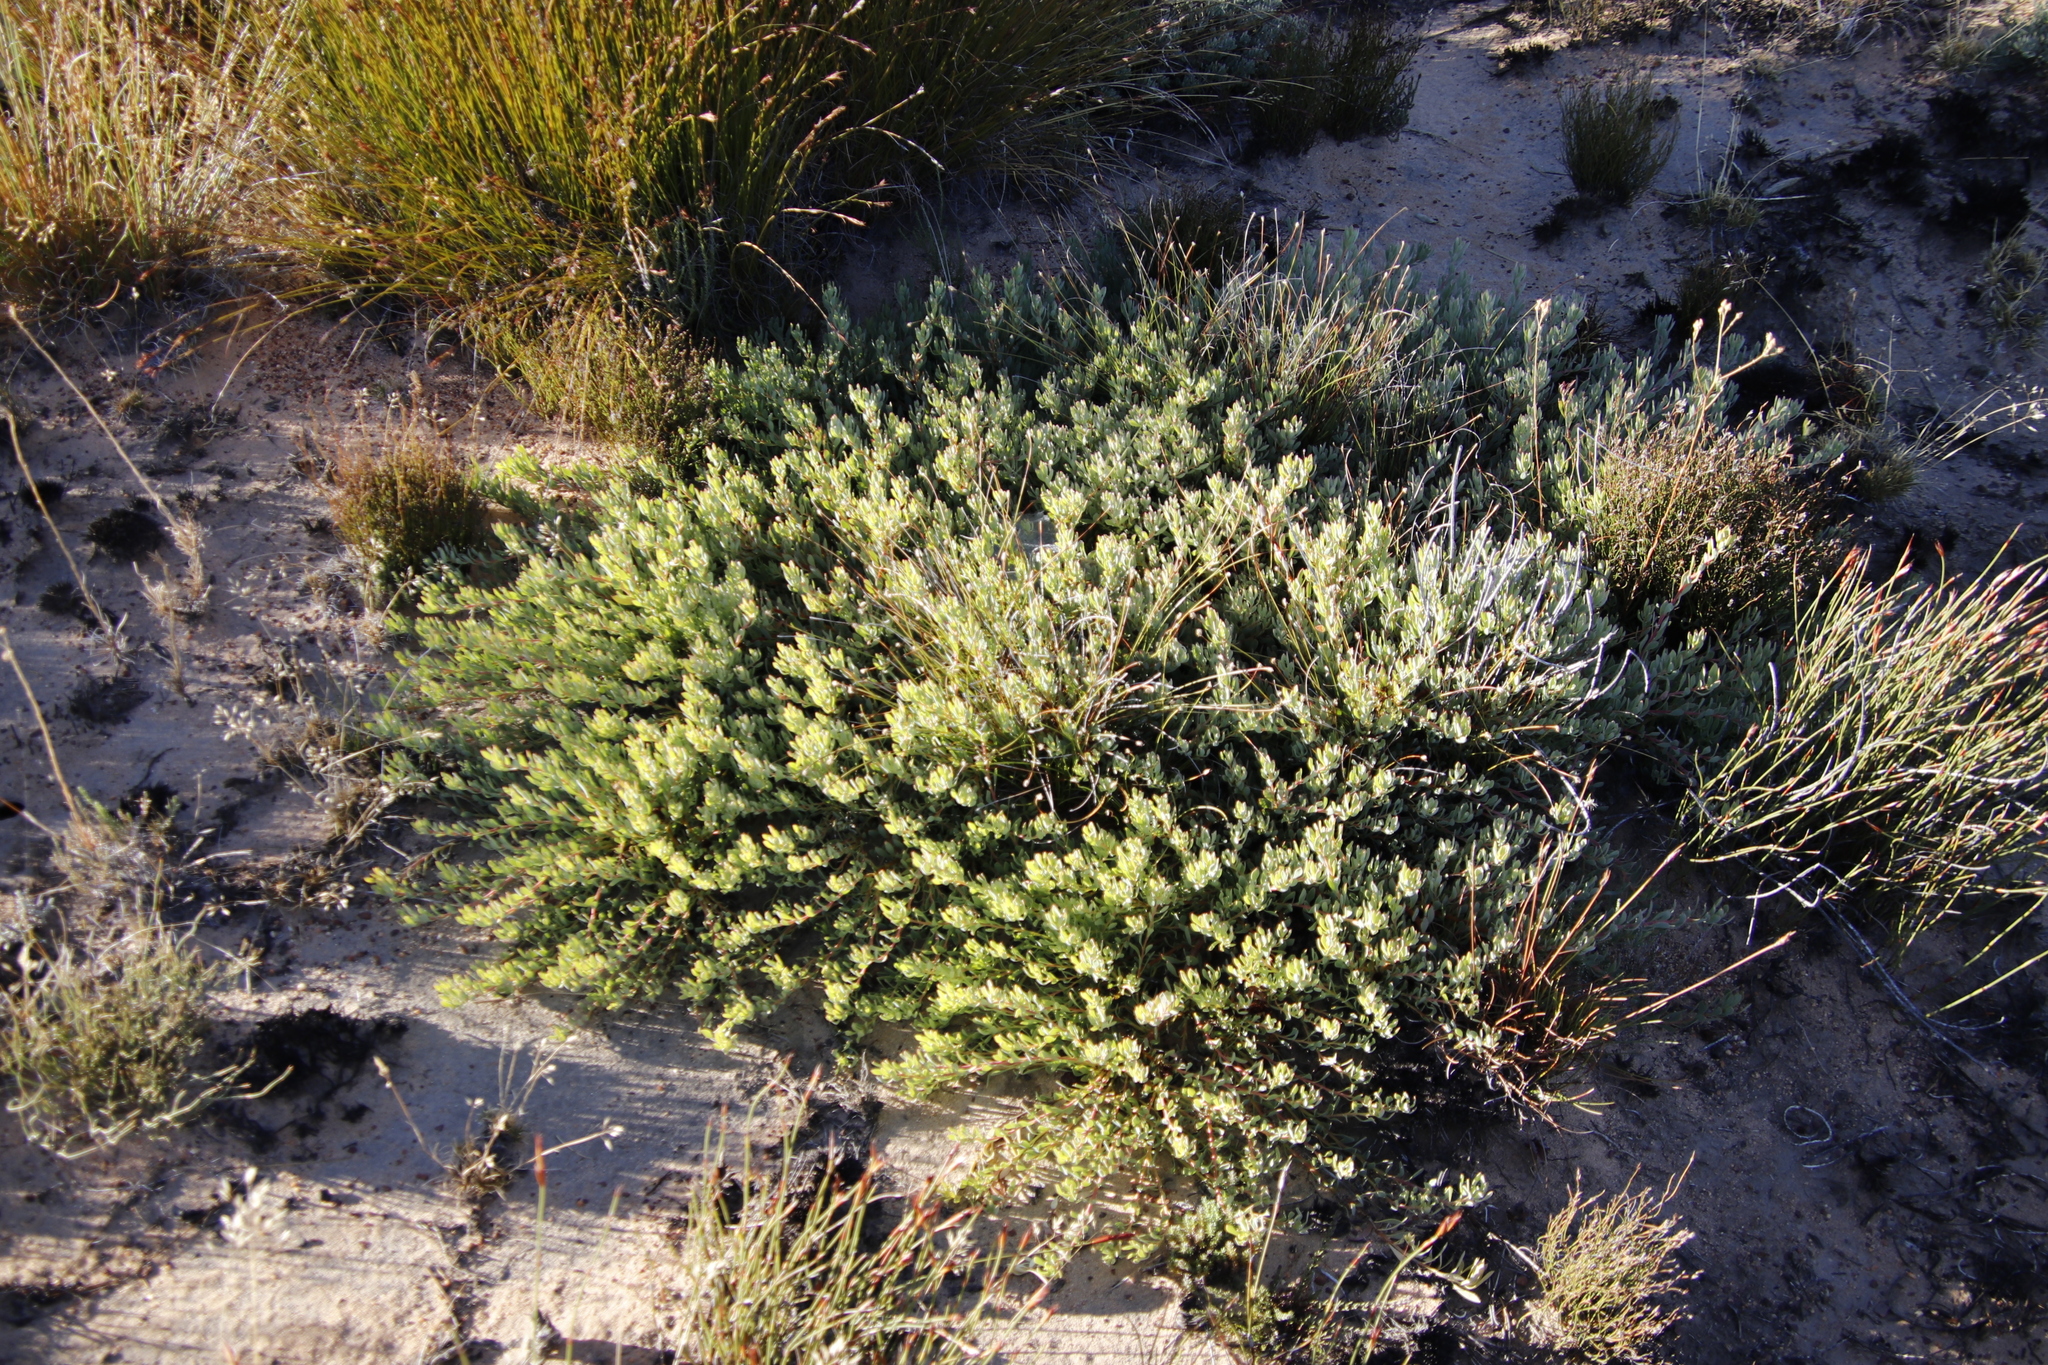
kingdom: Plantae
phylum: Tracheophyta
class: Magnoliopsida
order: Proteales
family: Proteaceae
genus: Leucadendron
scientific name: Leucadendron glaberrimum
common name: Common oily conebush
